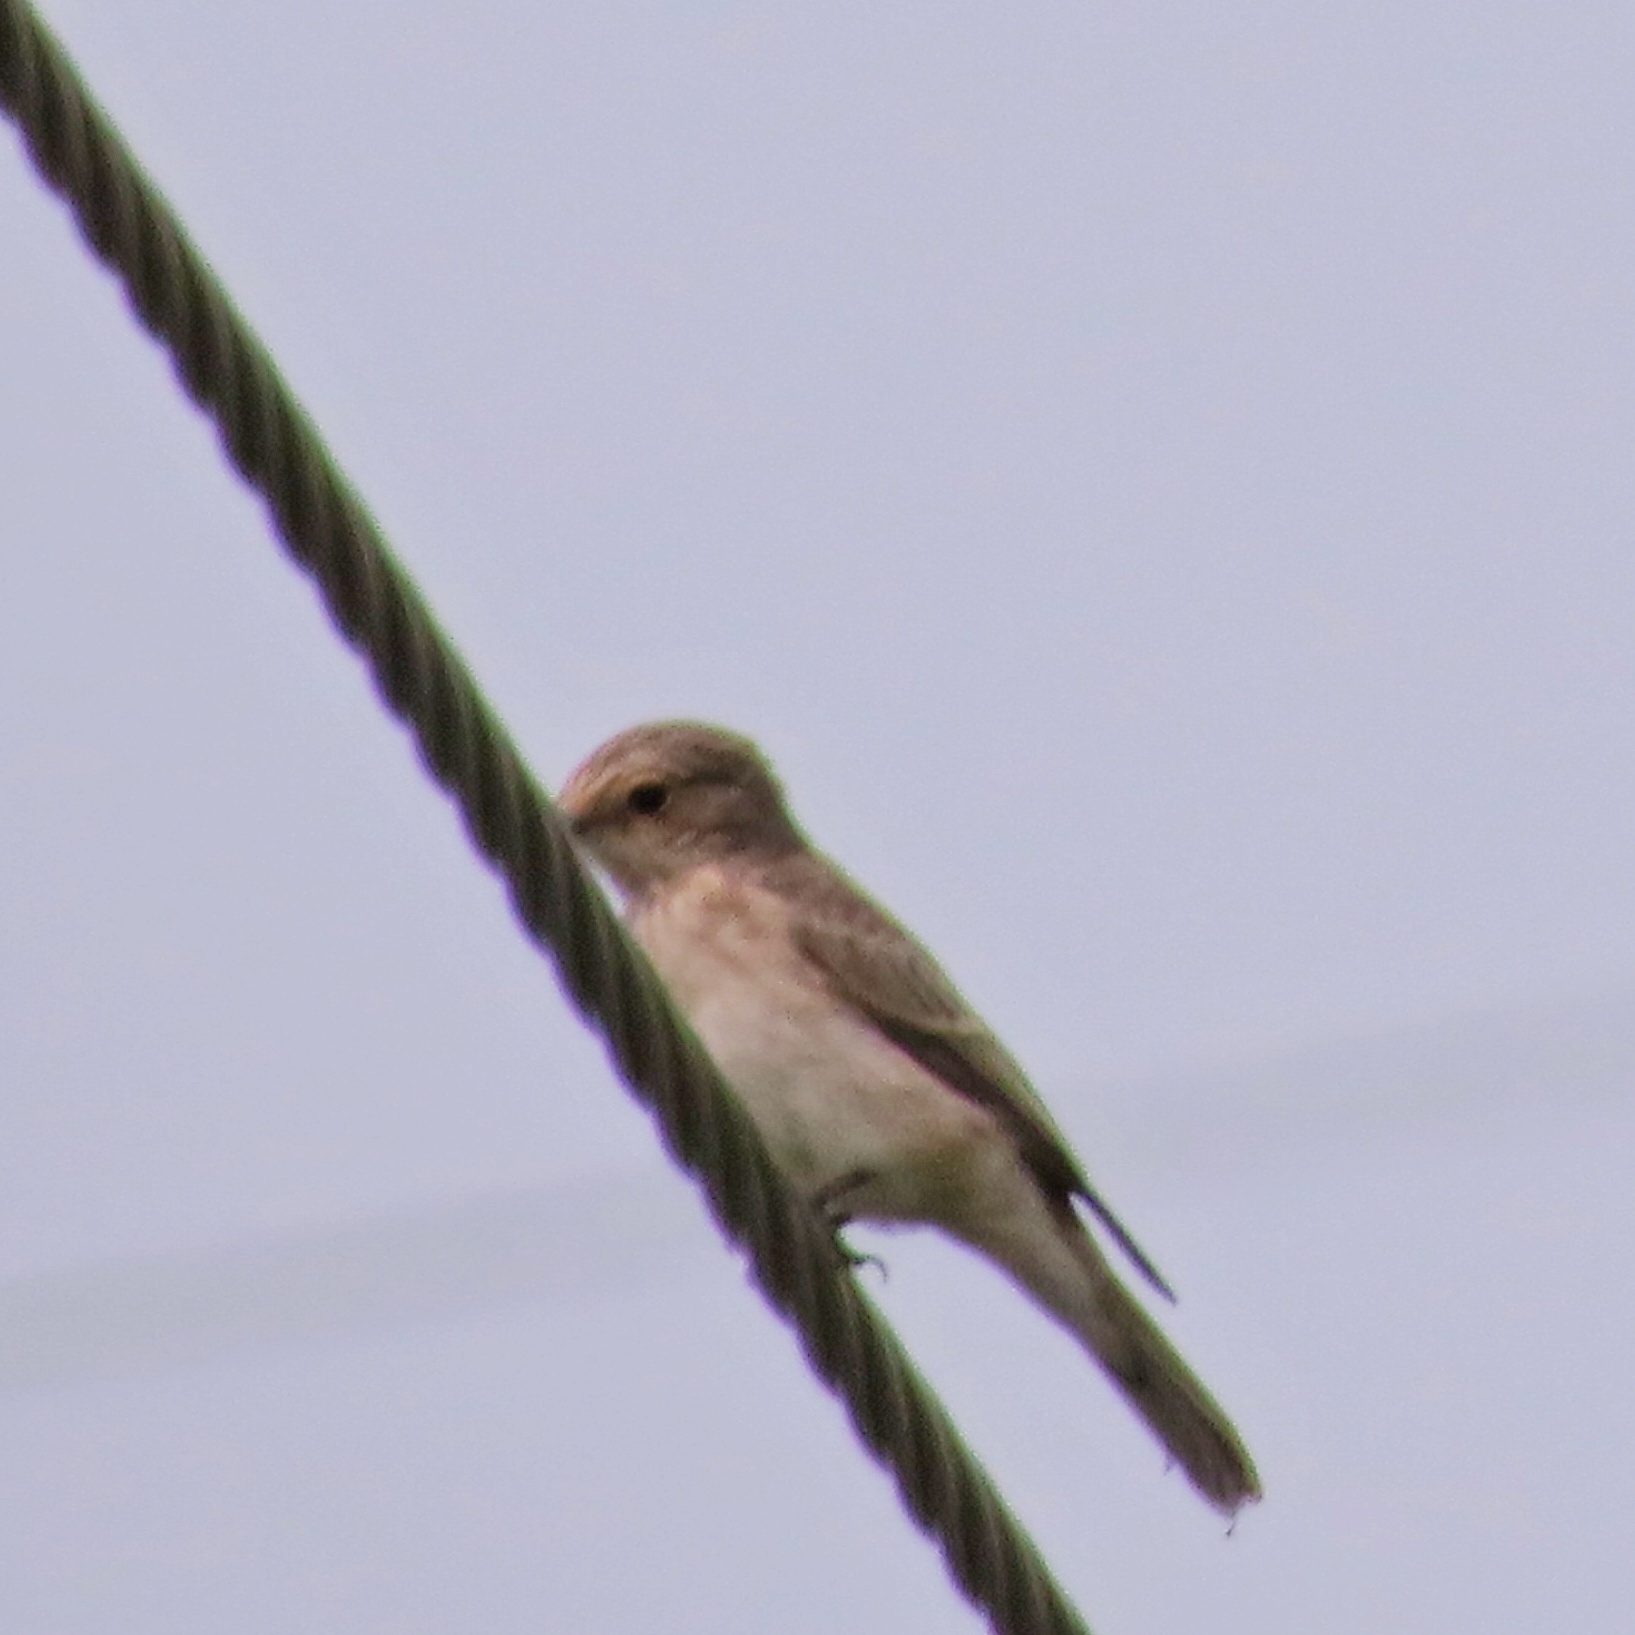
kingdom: Animalia
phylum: Chordata
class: Aves
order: Passeriformes
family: Muscicapidae
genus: Muscicapa
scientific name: Muscicapa striata
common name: Spotted flycatcher
